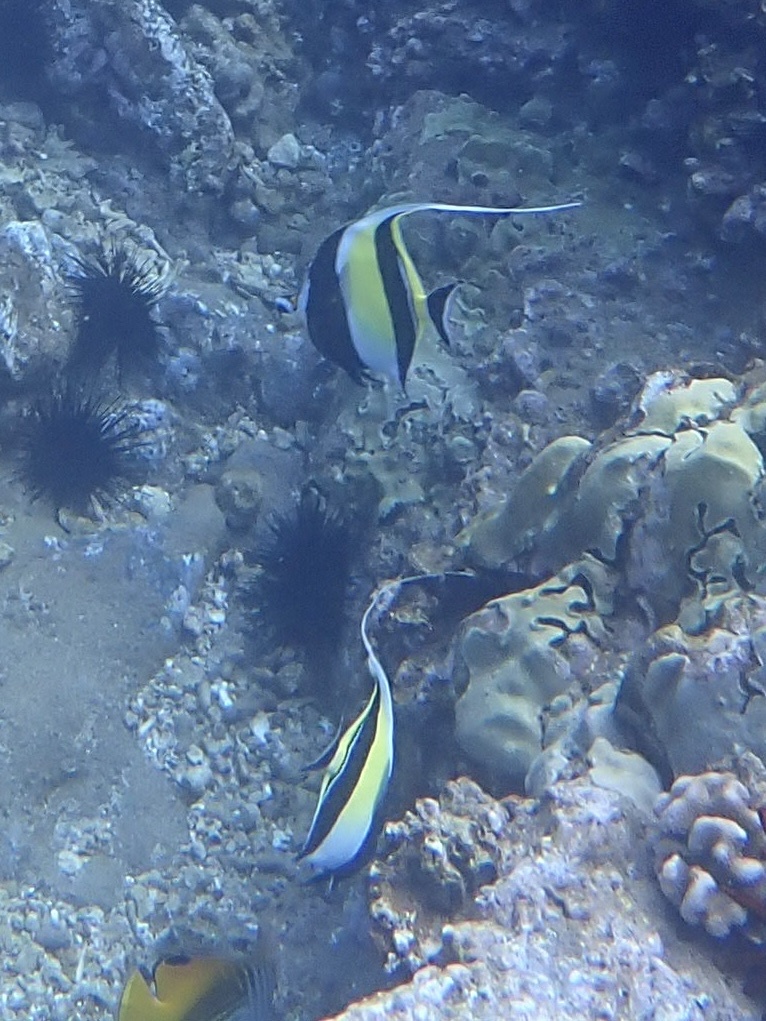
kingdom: Animalia
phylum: Chordata
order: Perciformes
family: Zanclidae
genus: Zanclus
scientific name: Zanclus cornutus
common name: Moorish idol
